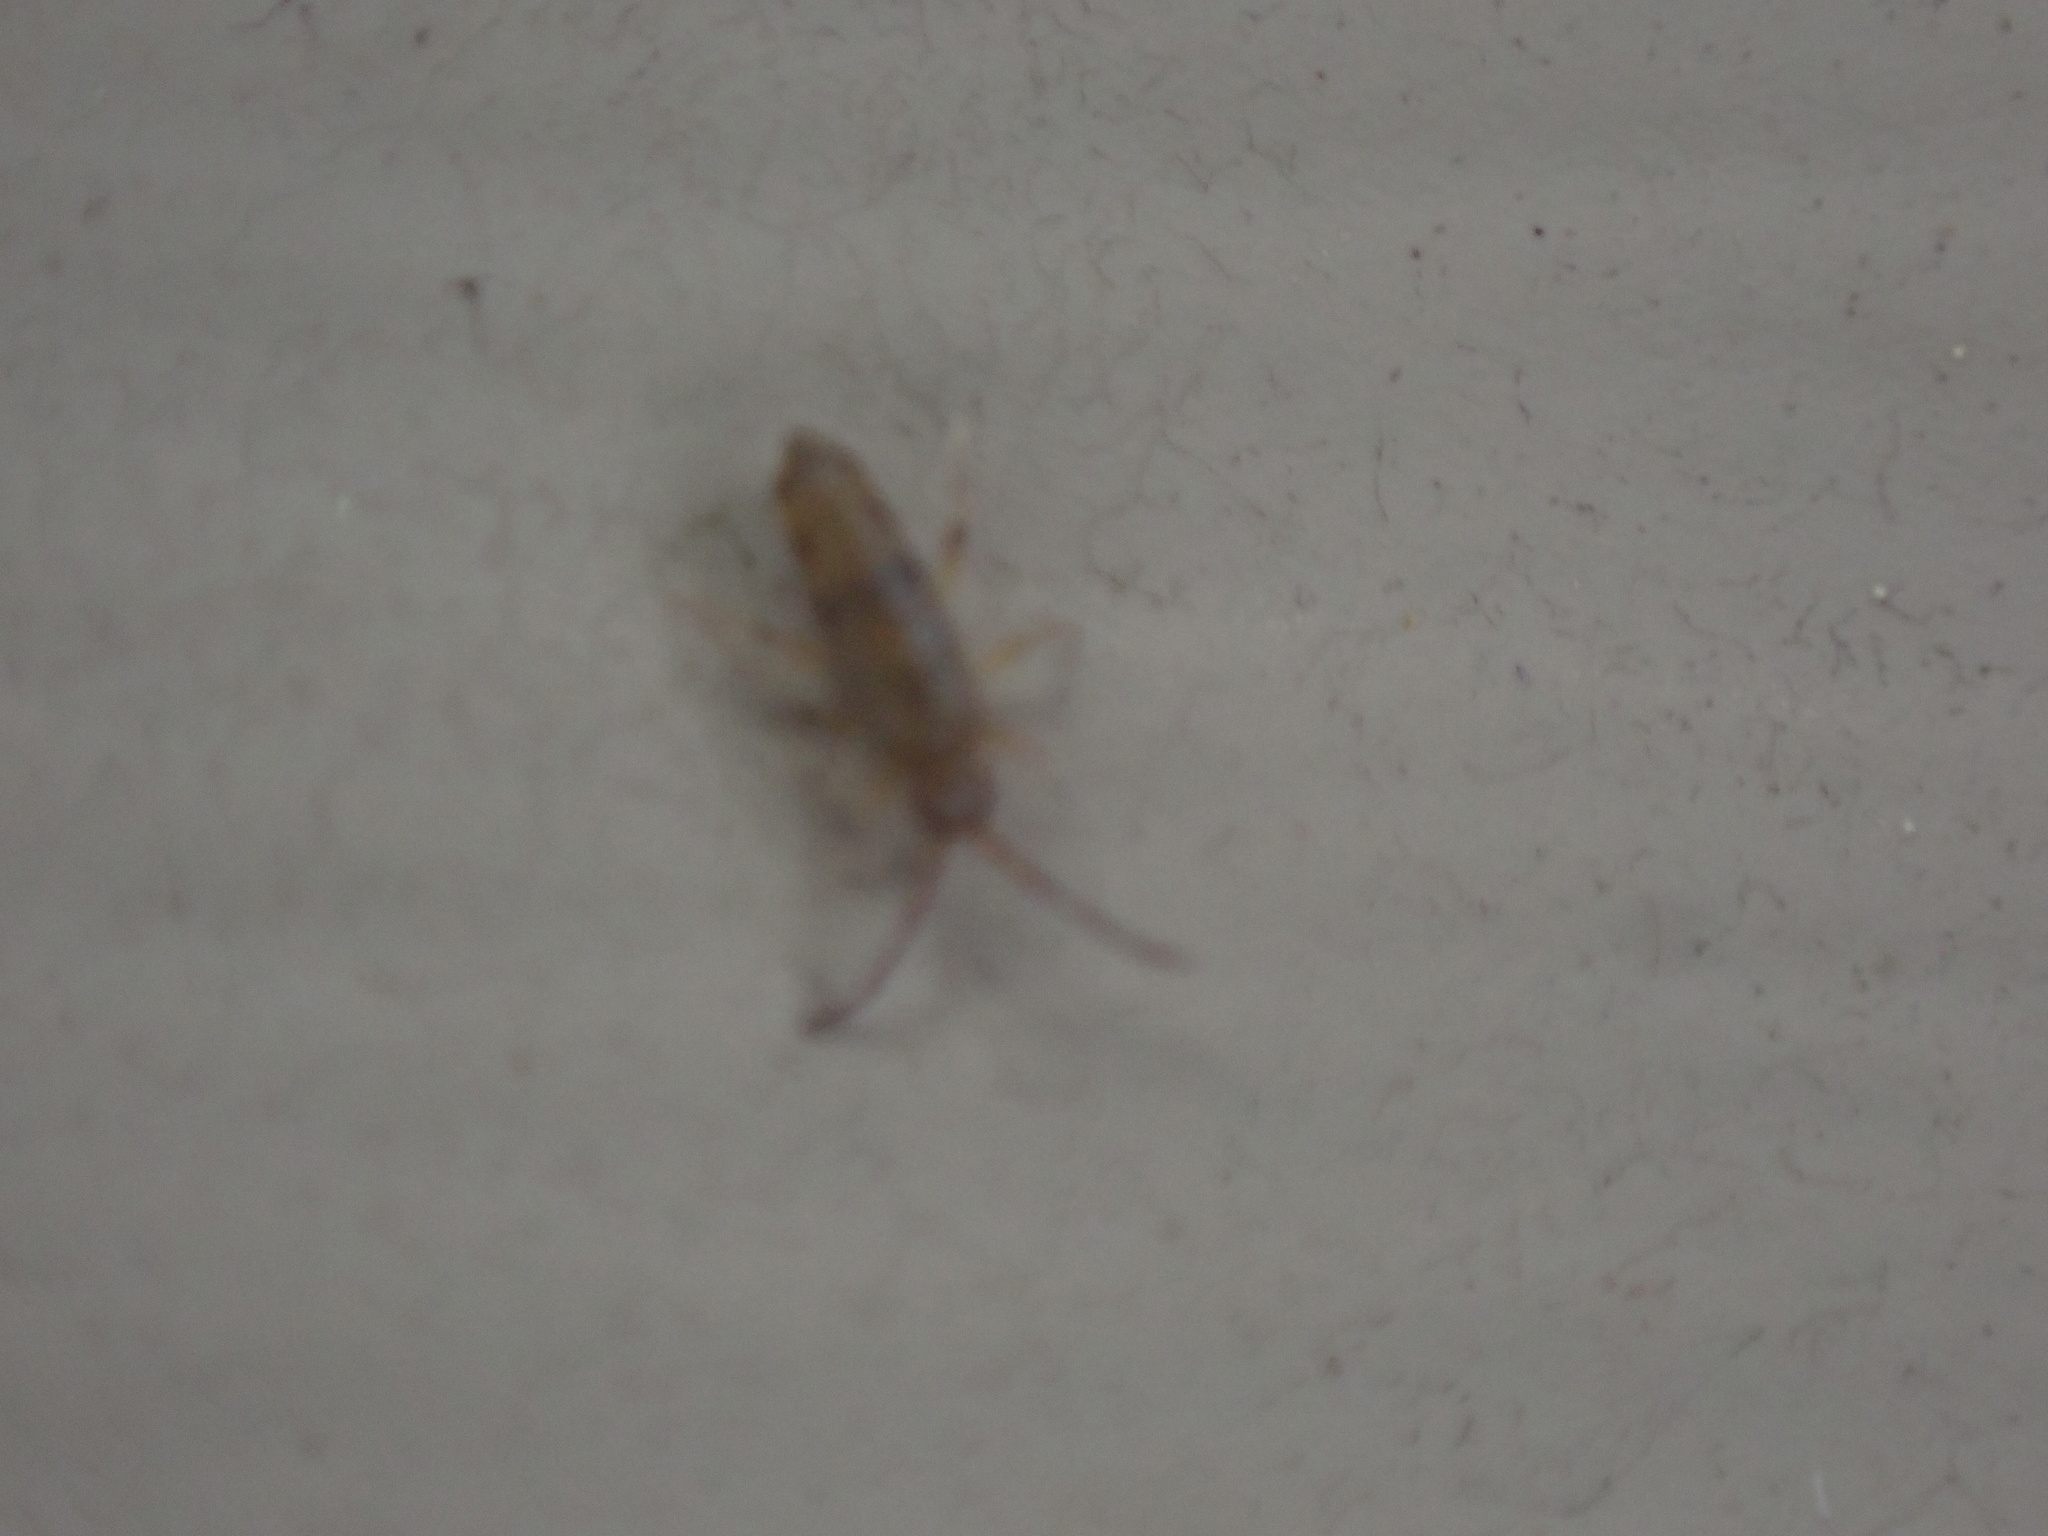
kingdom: Animalia
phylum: Arthropoda
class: Collembola
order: Entomobryomorpha
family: Entomobryidae
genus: Willowsia
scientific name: Willowsia nigromaculata
